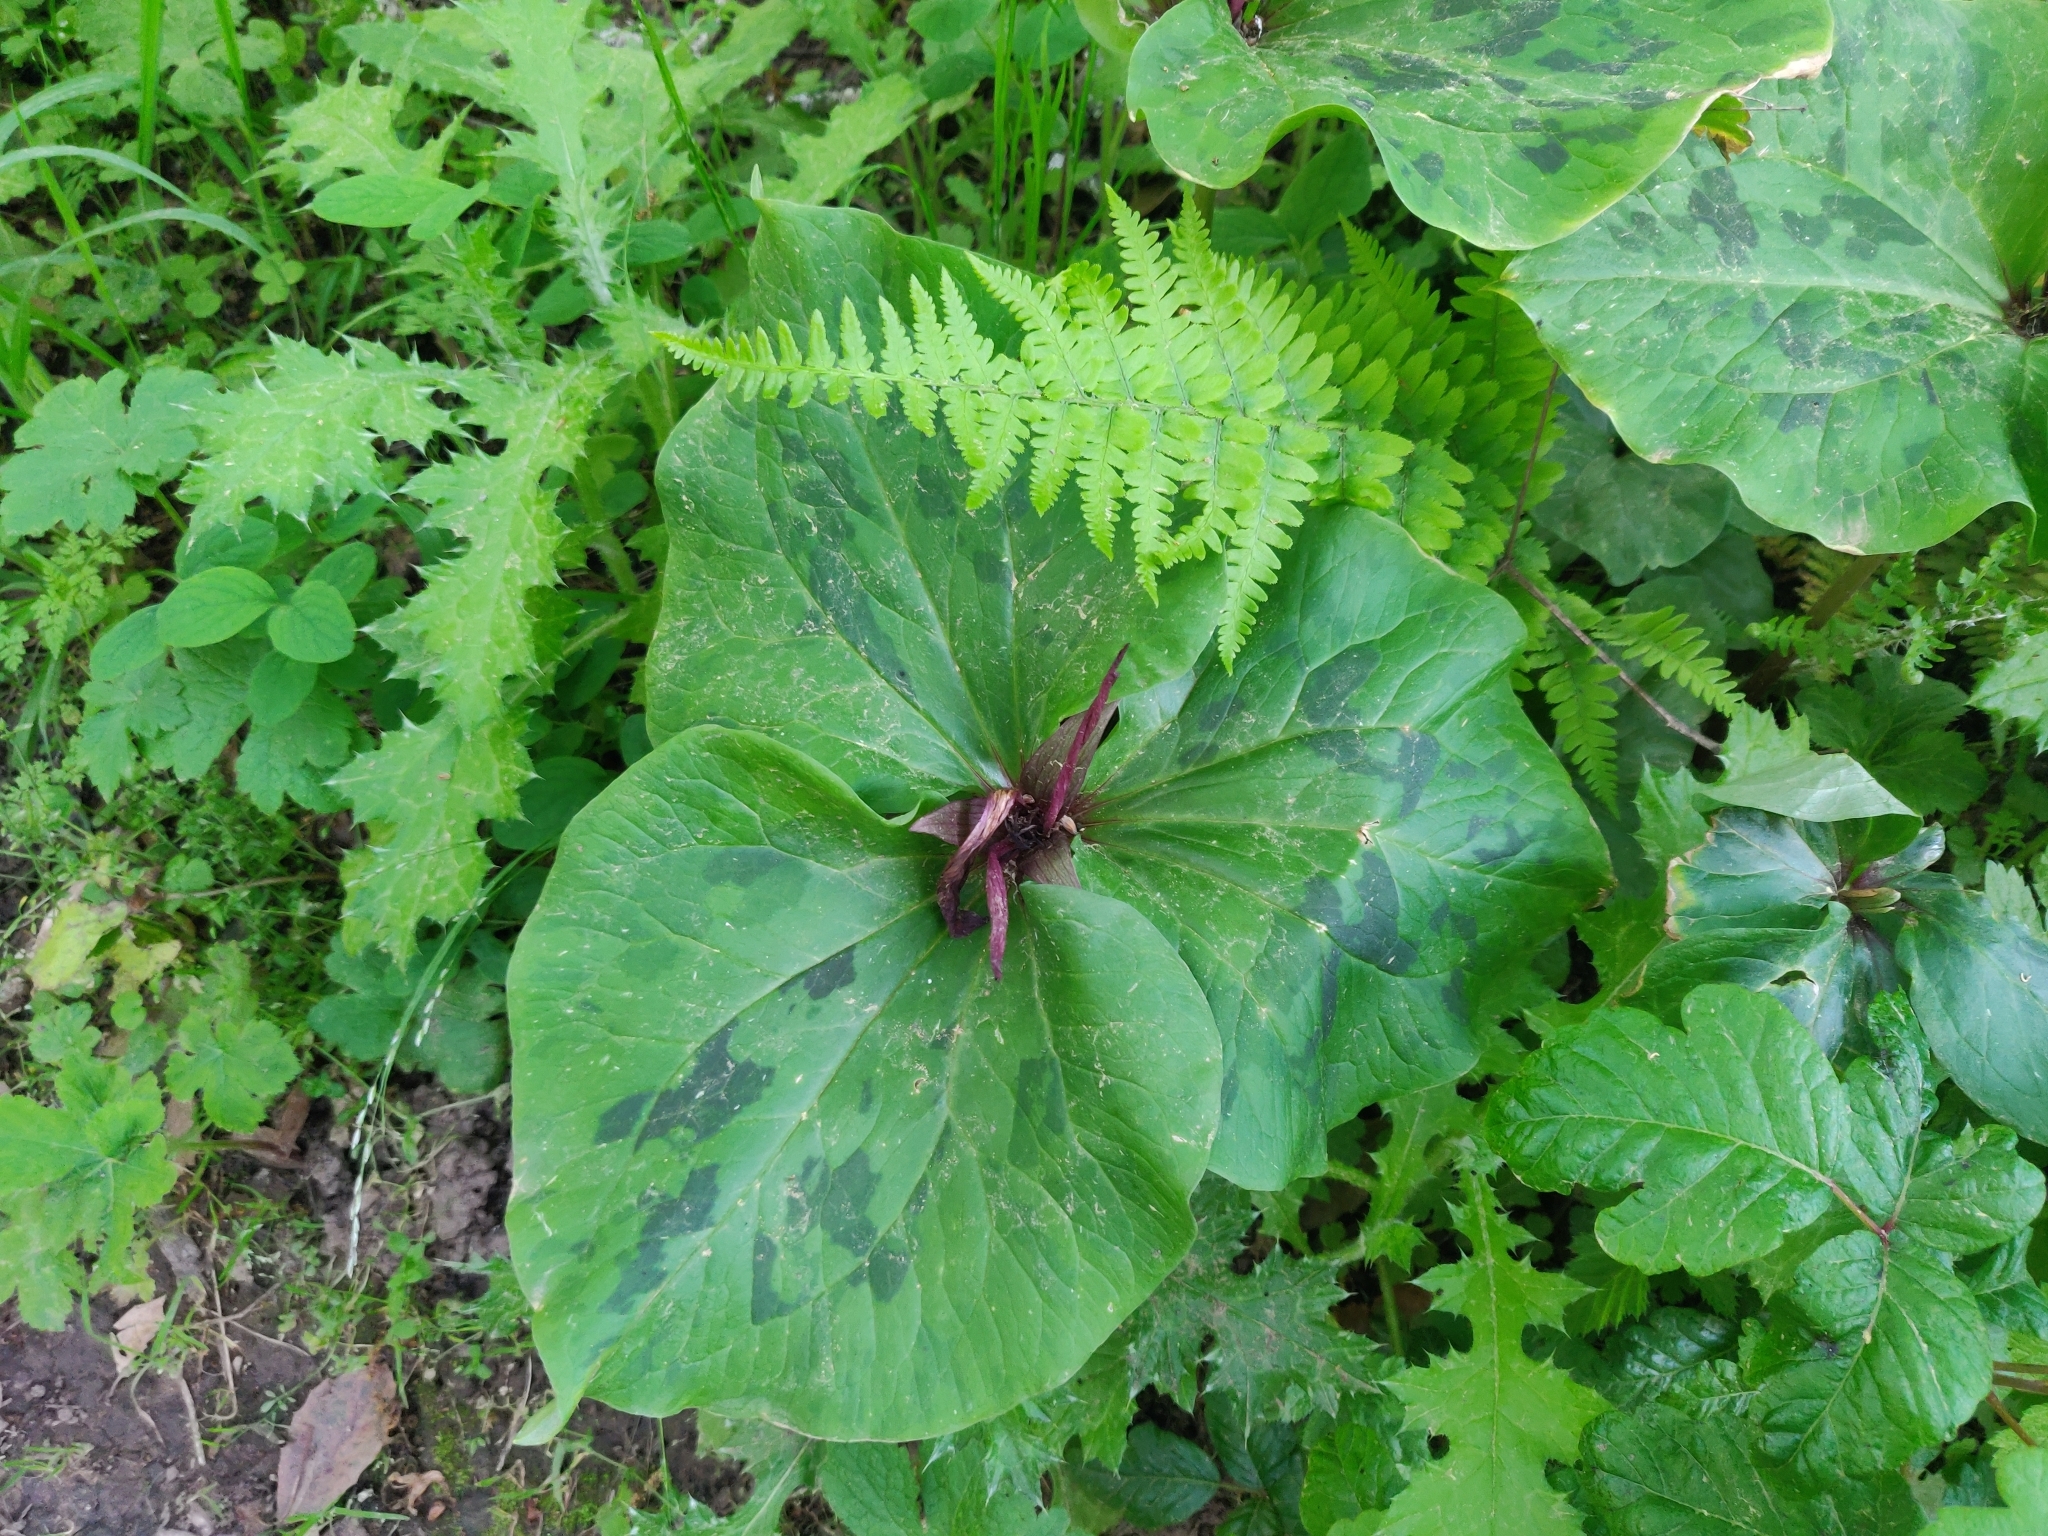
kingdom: Plantae
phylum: Tracheophyta
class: Liliopsida
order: Liliales
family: Melanthiaceae
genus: Trillium
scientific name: Trillium chloropetalum
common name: Giant trillium
